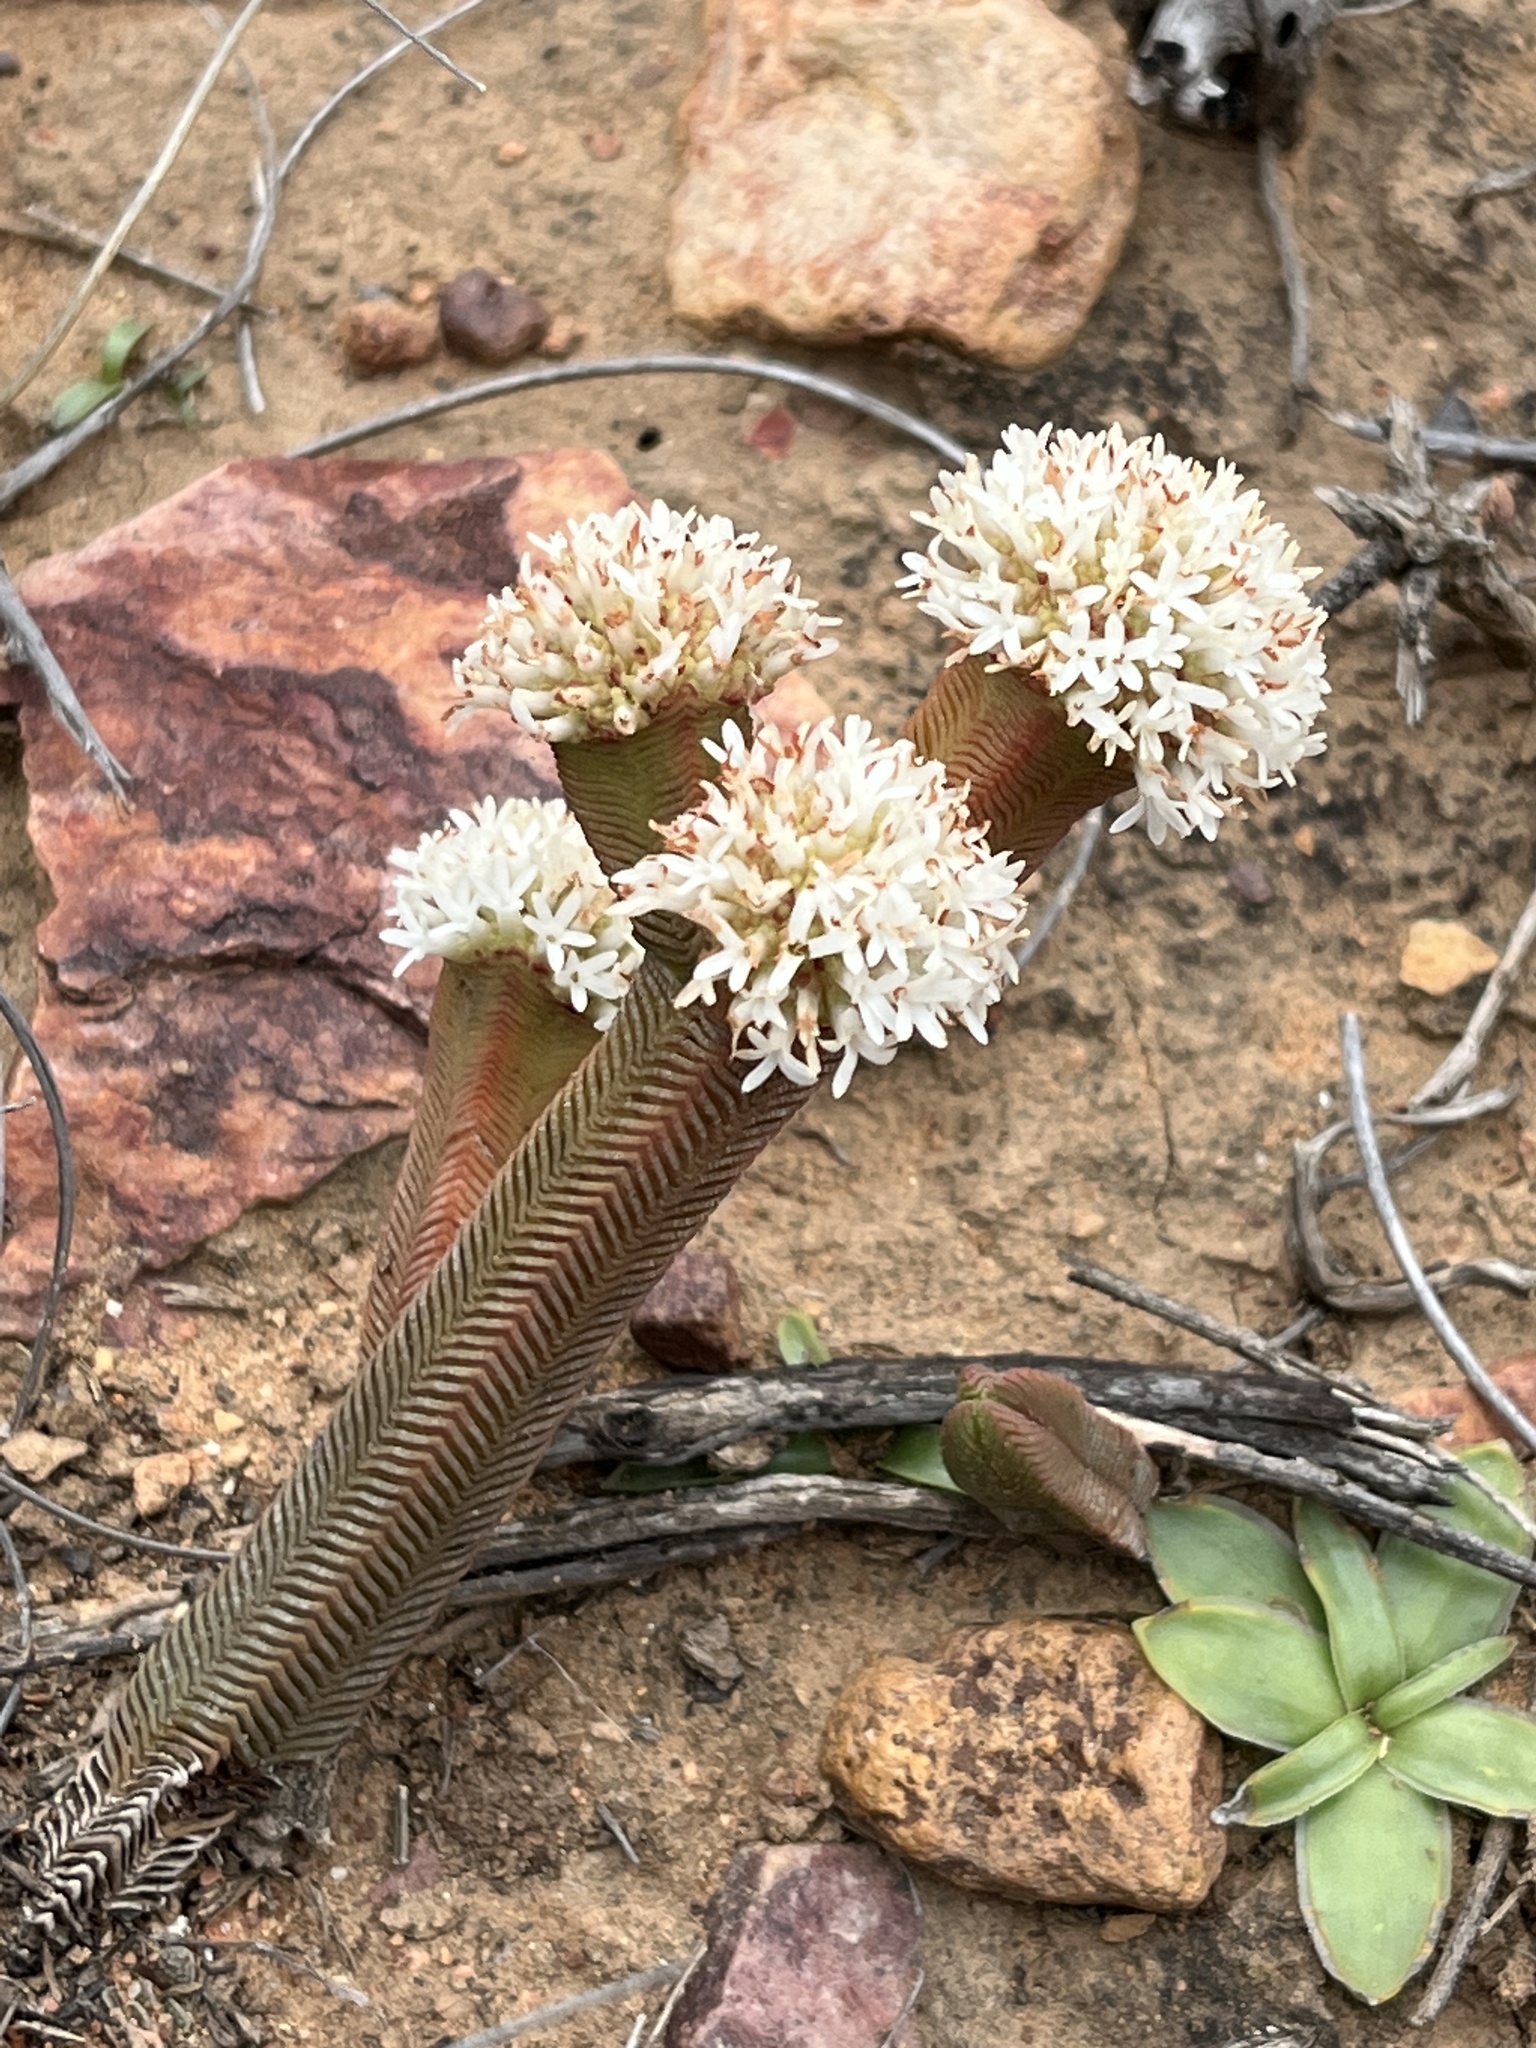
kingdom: Plantae
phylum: Tracheophyta
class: Magnoliopsida
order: Saxifragales
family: Crassulaceae
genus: Crassula
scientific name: Crassula pyramidalis
